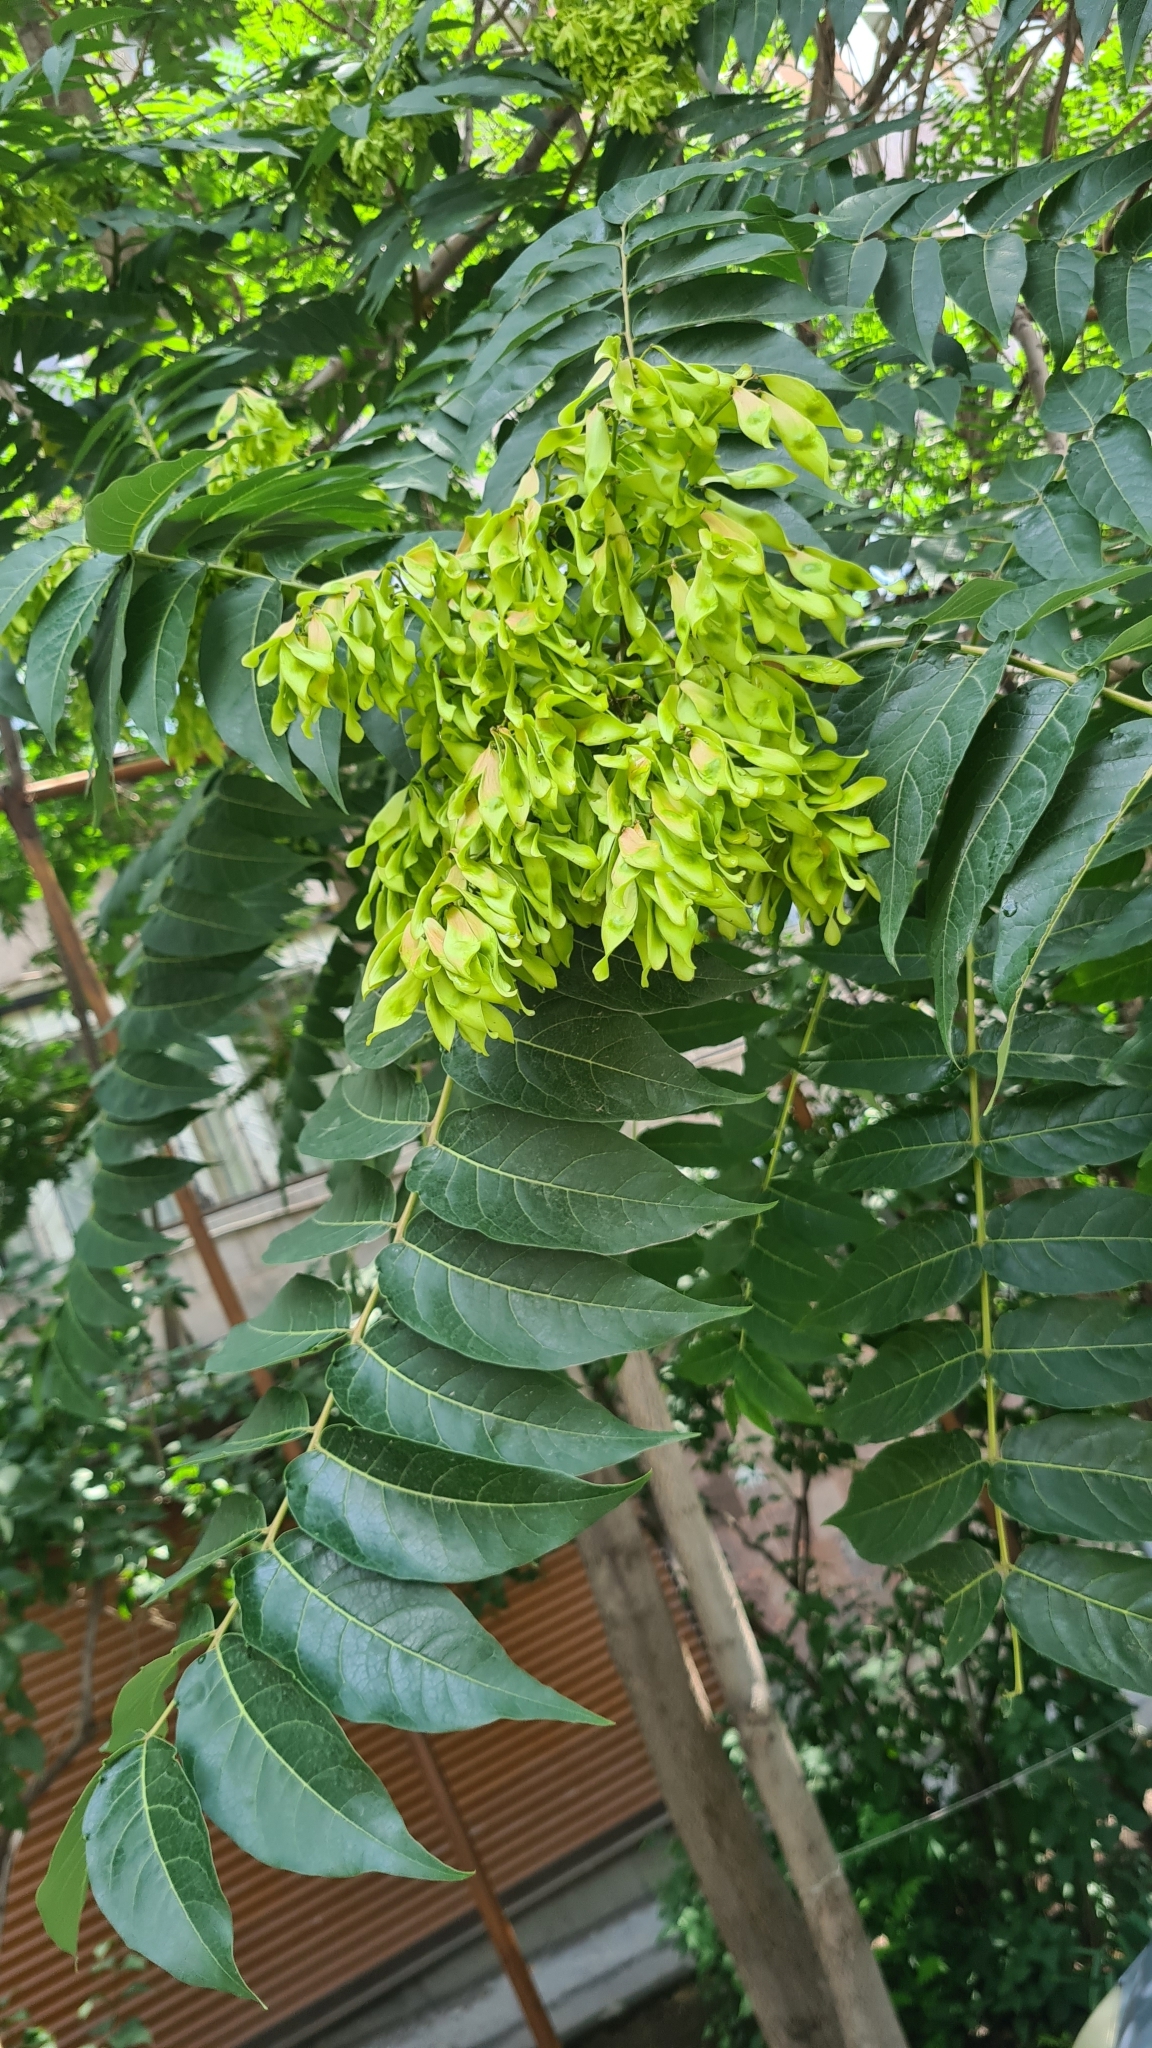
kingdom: Plantae
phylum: Tracheophyta
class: Magnoliopsida
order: Sapindales
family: Simaroubaceae
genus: Ailanthus
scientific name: Ailanthus altissima
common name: Tree-of-heaven
